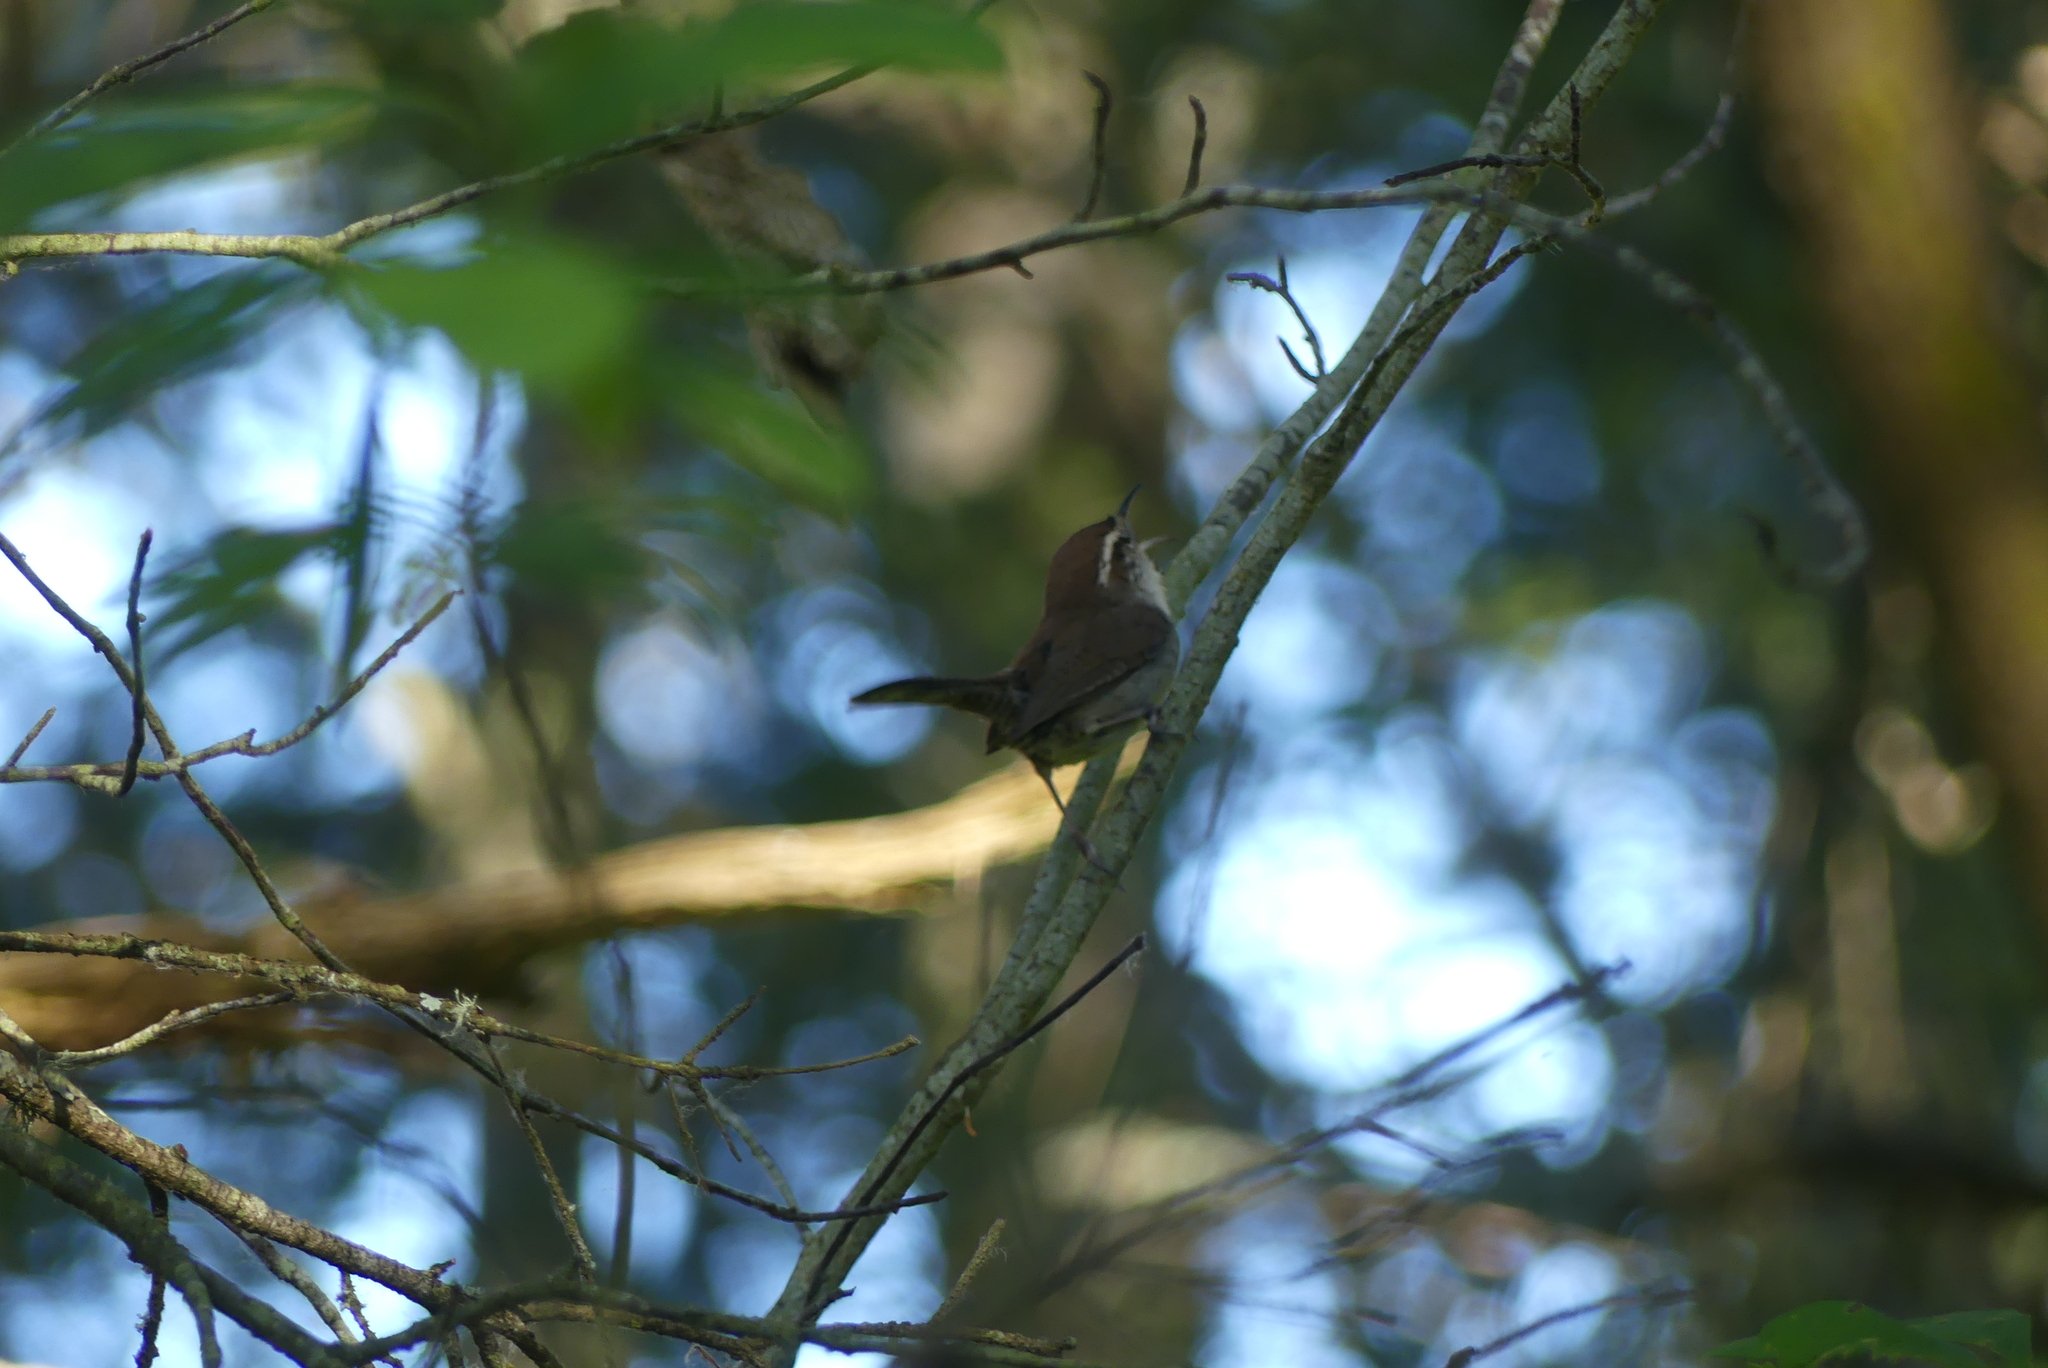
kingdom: Animalia
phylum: Chordata
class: Aves
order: Passeriformes
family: Troglodytidae
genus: Thryomanes
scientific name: Thryomanes bewickii
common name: Bewick's wren
